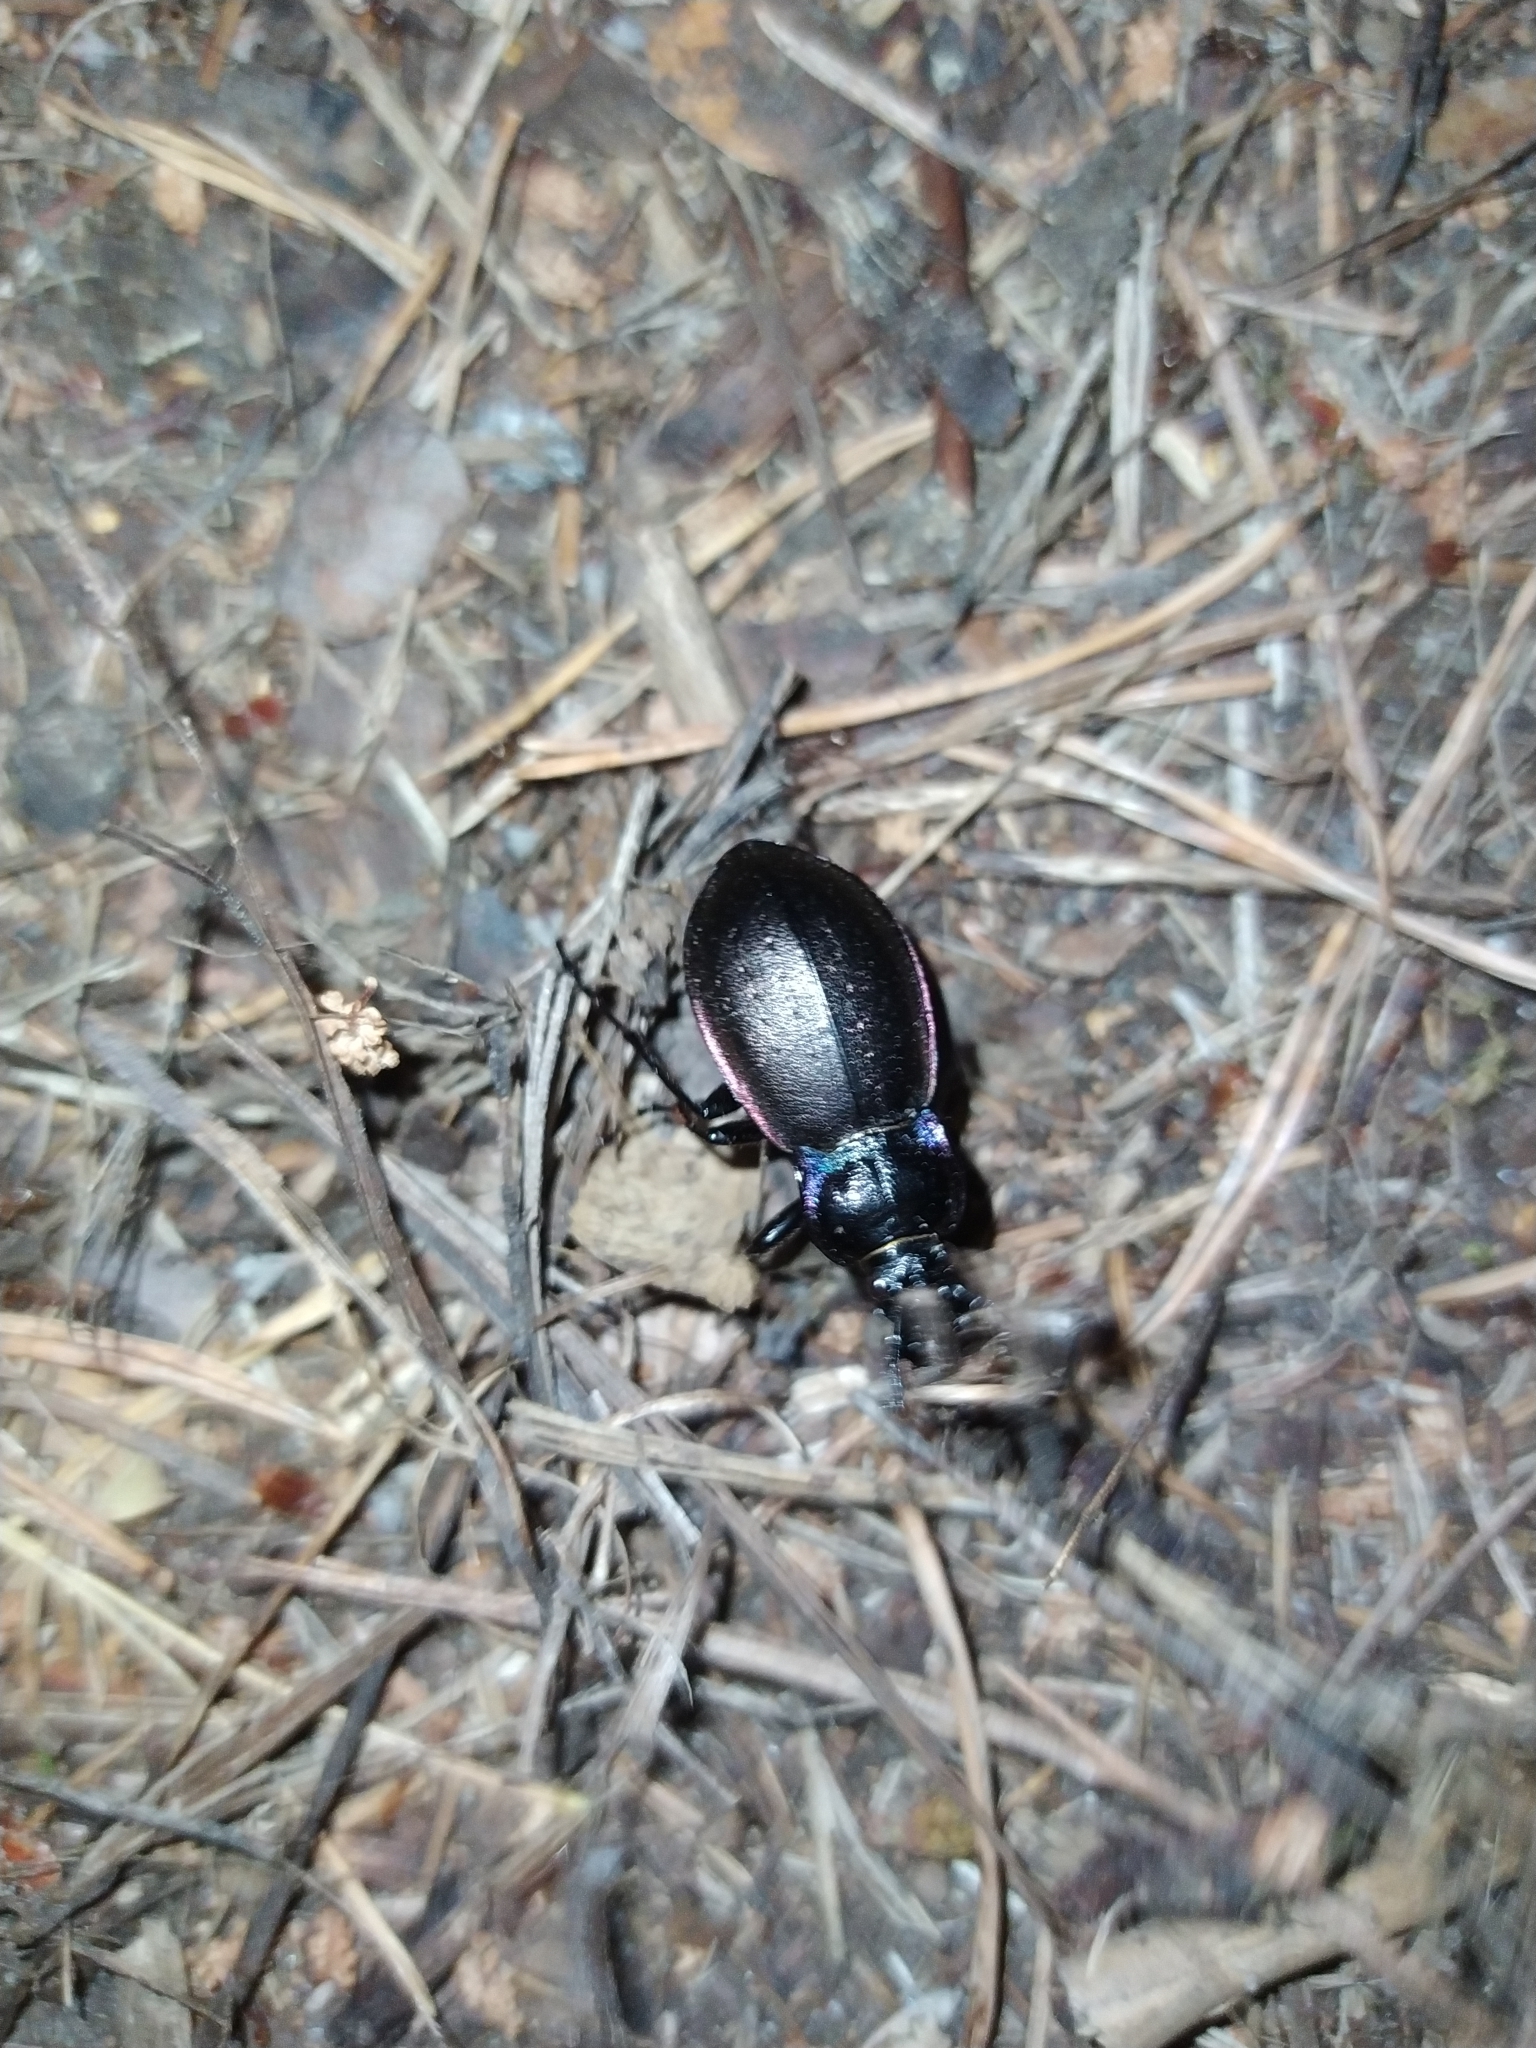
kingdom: Animalia
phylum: Arthropoda
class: Insecta
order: Coleoptera
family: Carabidae
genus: Carabus
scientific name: Carabus nemoralis
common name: European ground beetle
